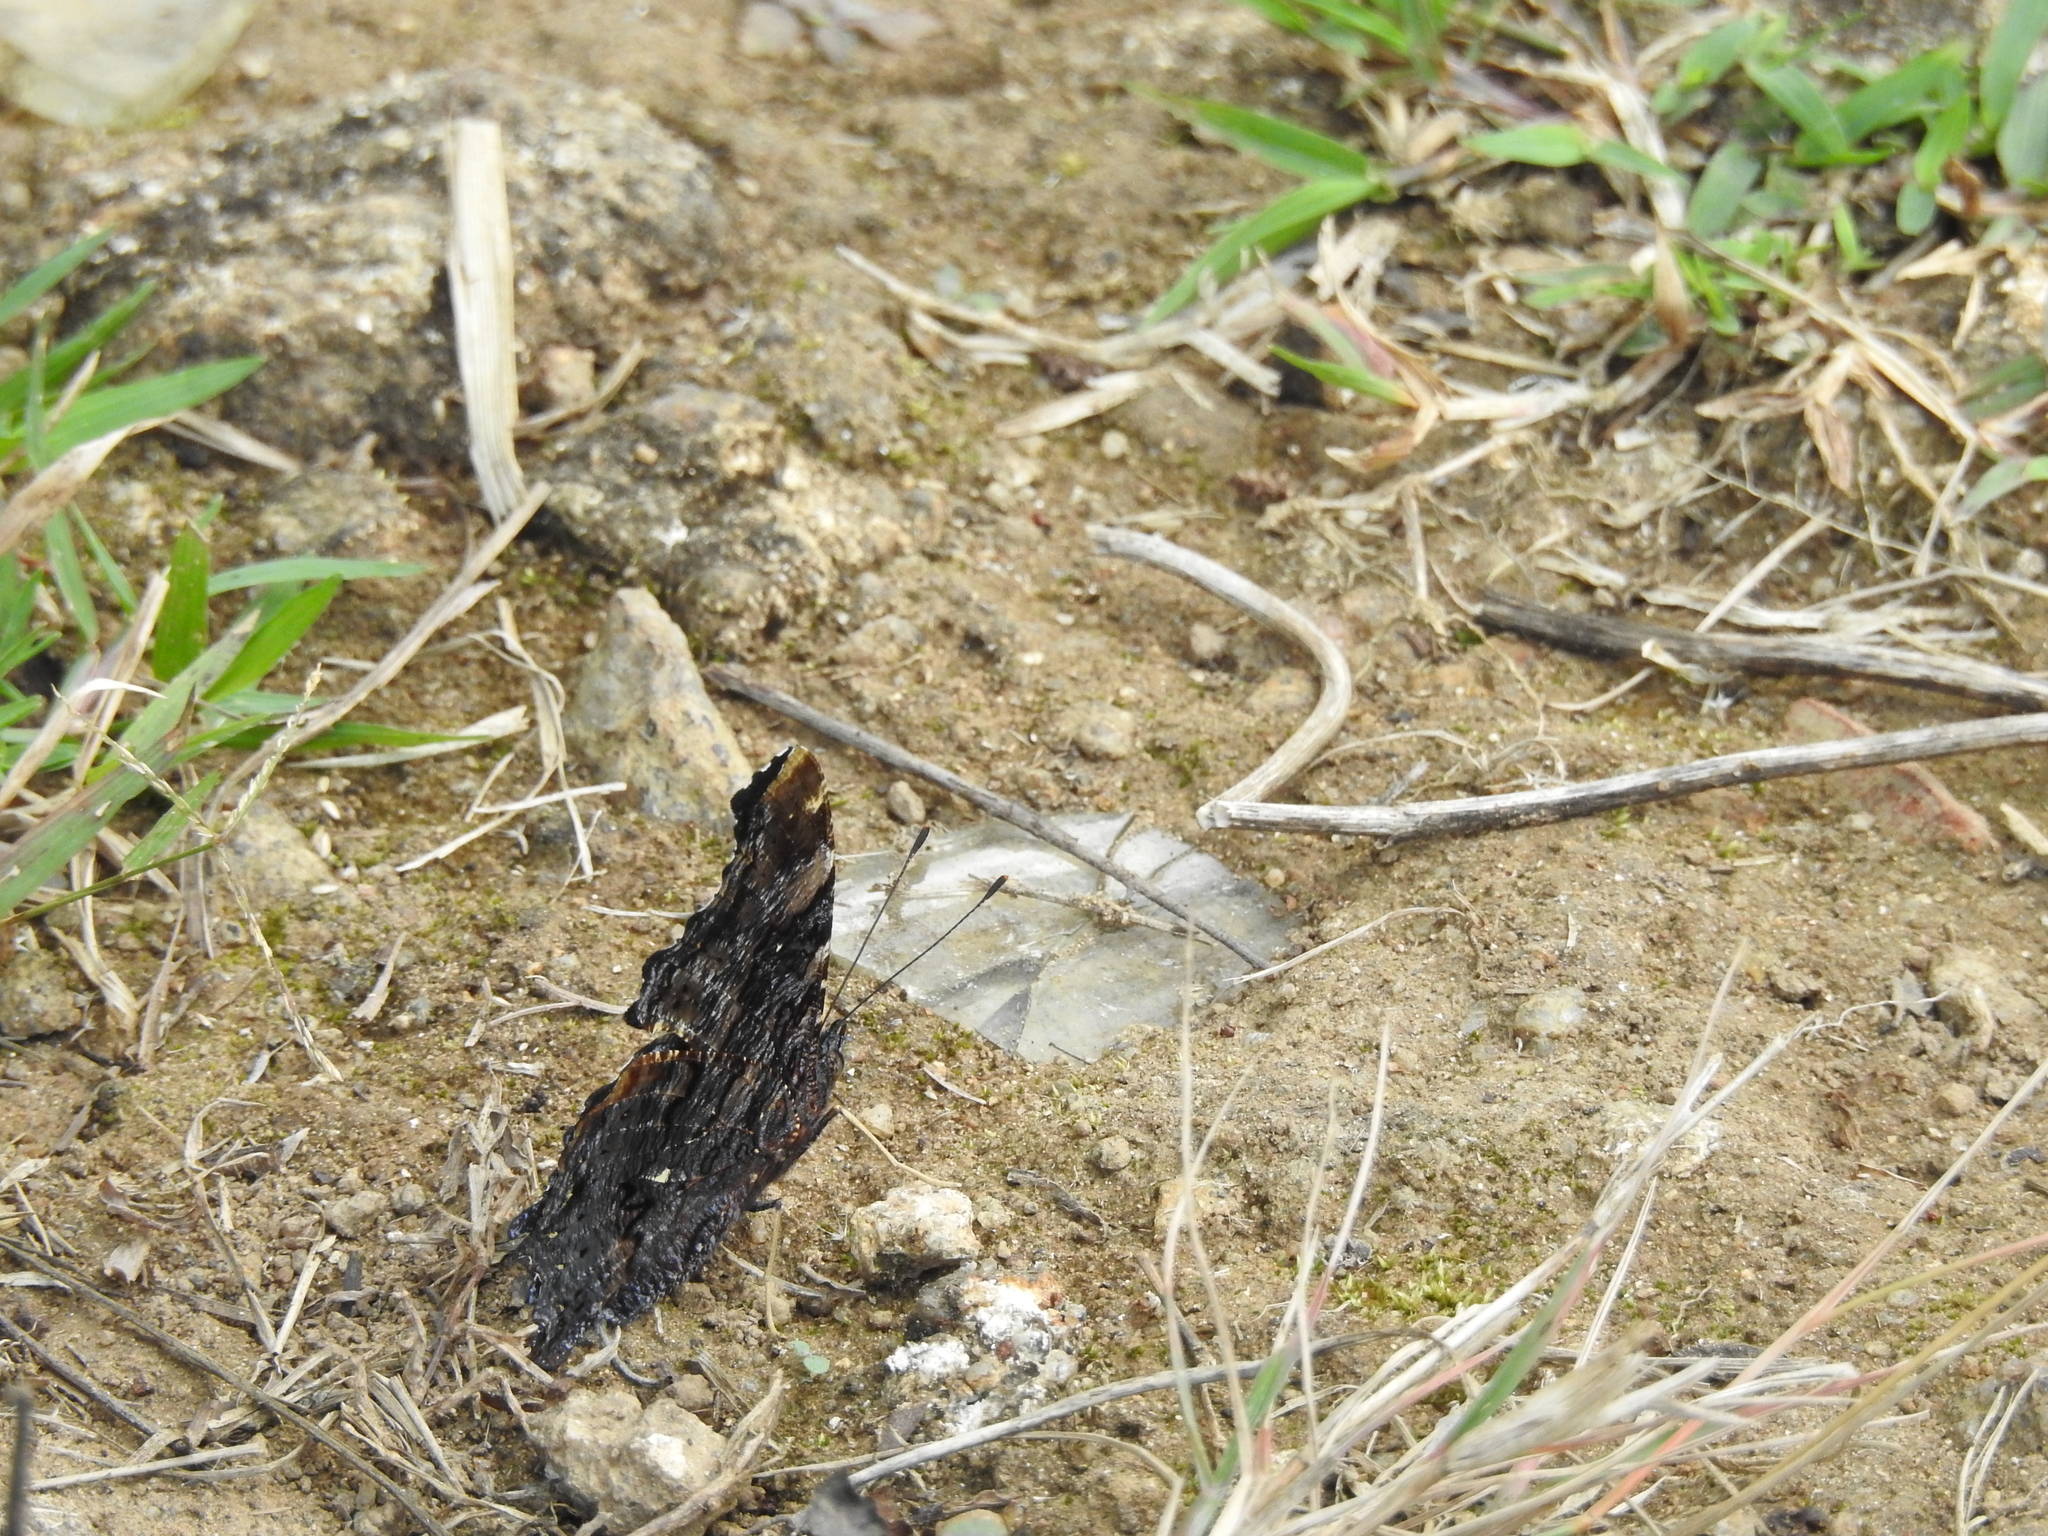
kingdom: Animalia
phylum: Arthropoda
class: Insecta
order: Lepidoptera
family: Nymphalidae
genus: Vanessa
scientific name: Vanessa Kaniska canace
